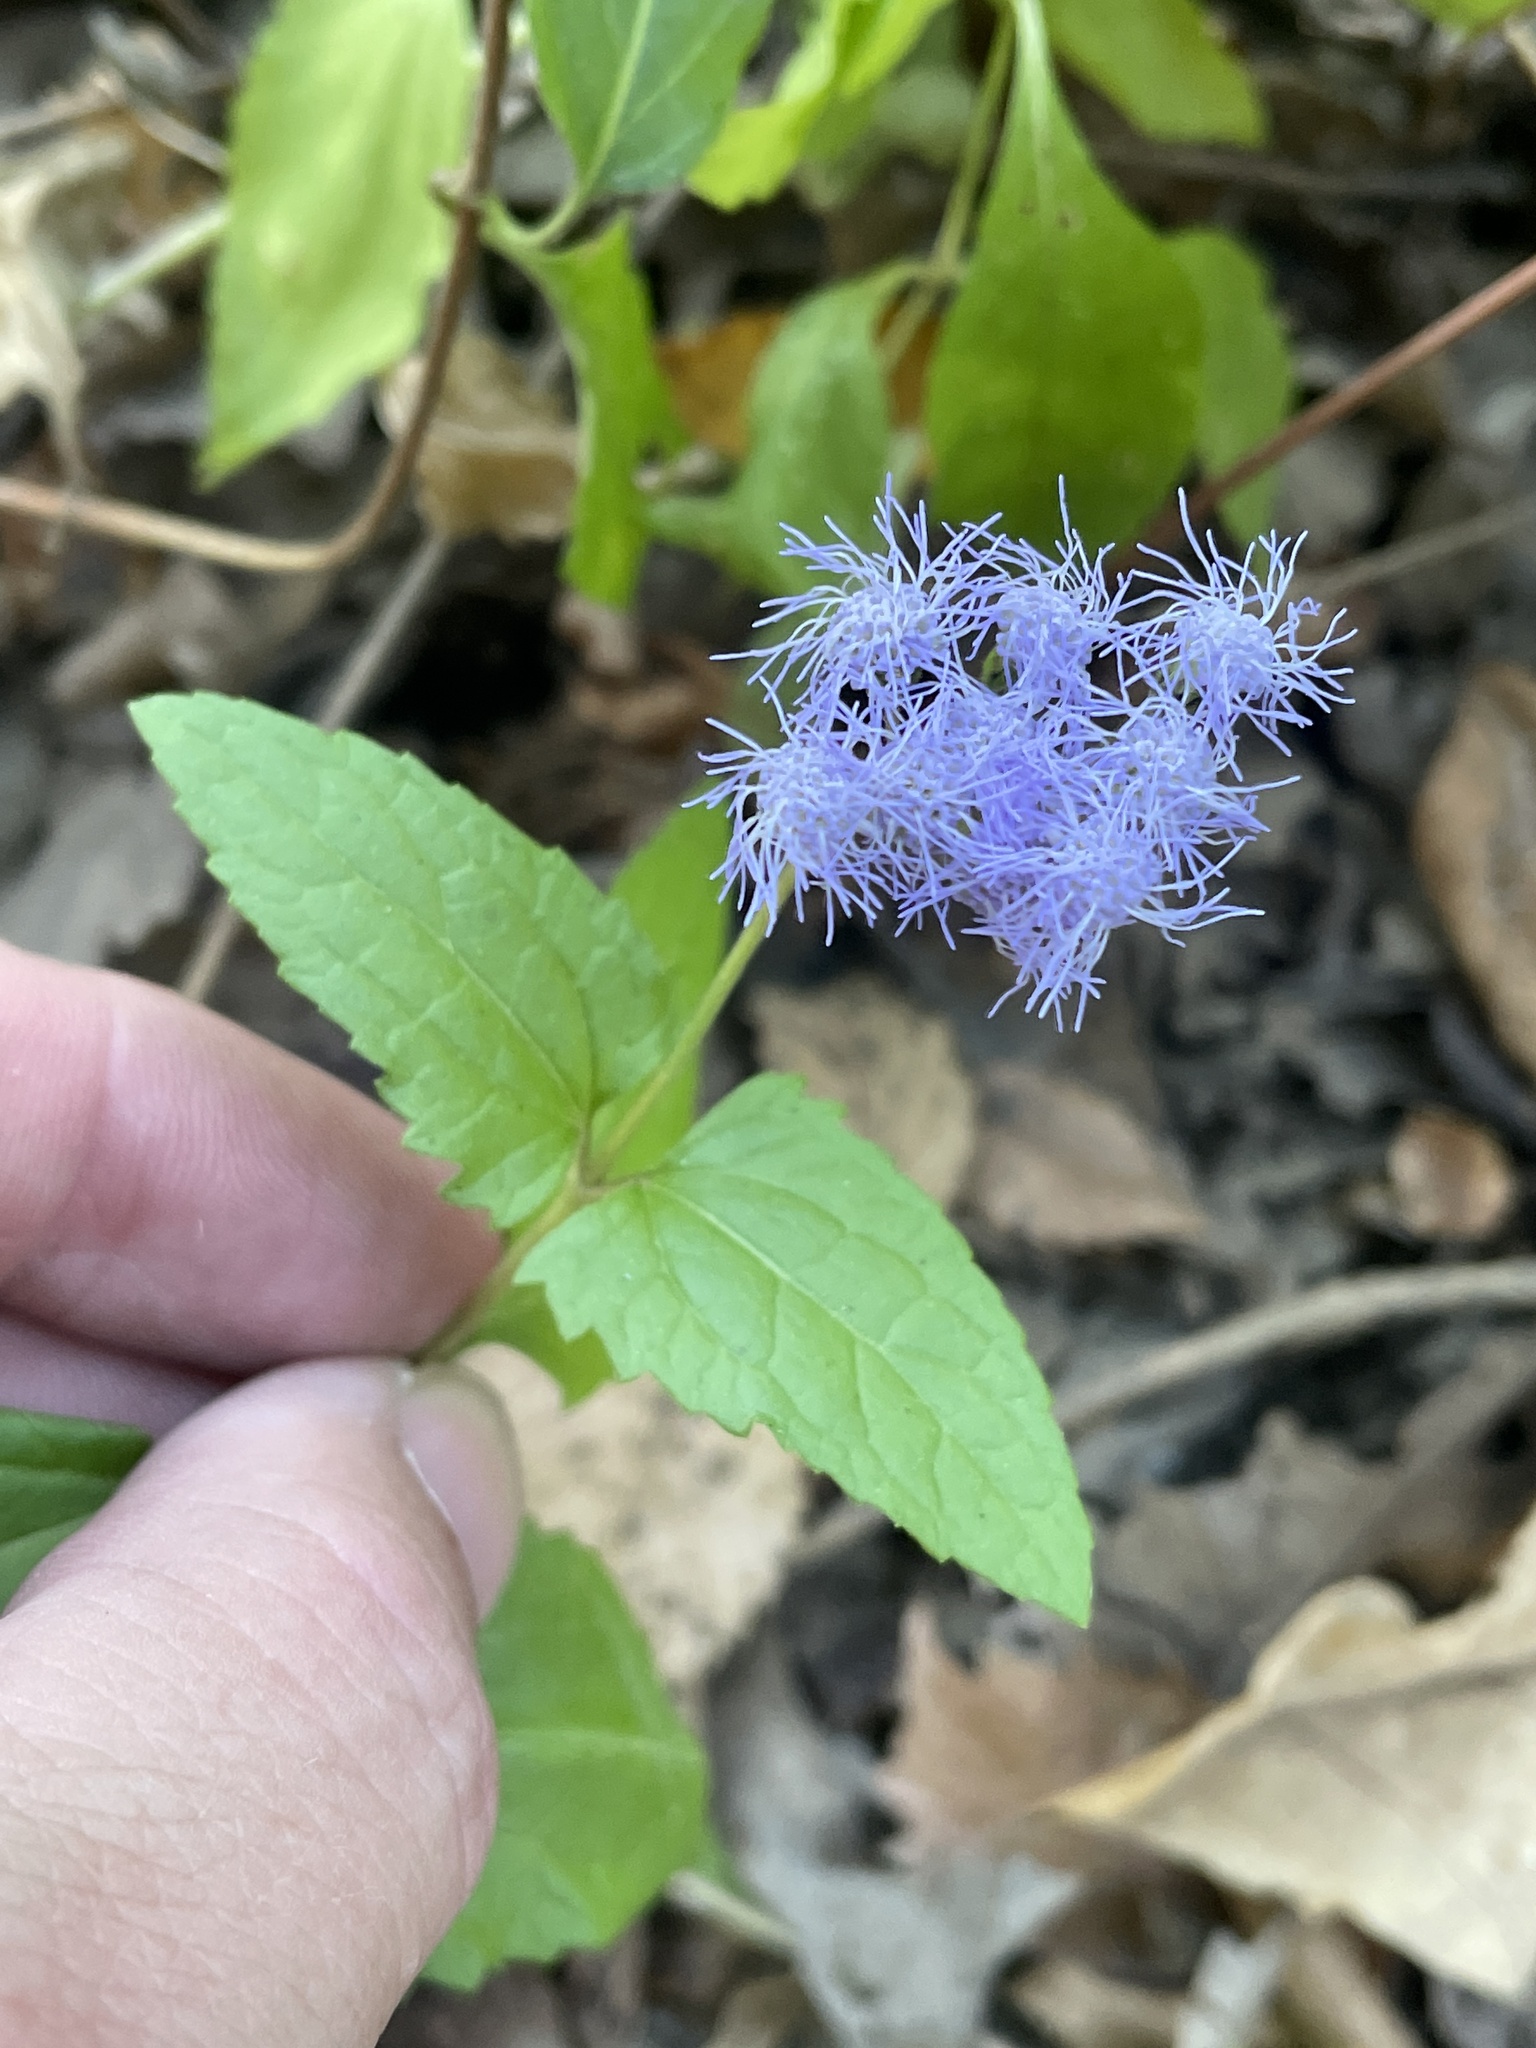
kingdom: Plantae
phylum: Tracheophyta
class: Magnoliopsida
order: Asterales
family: Asteraceae
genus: Conoclinium
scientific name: Conoclinium coelestinum
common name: Blue mistflower
